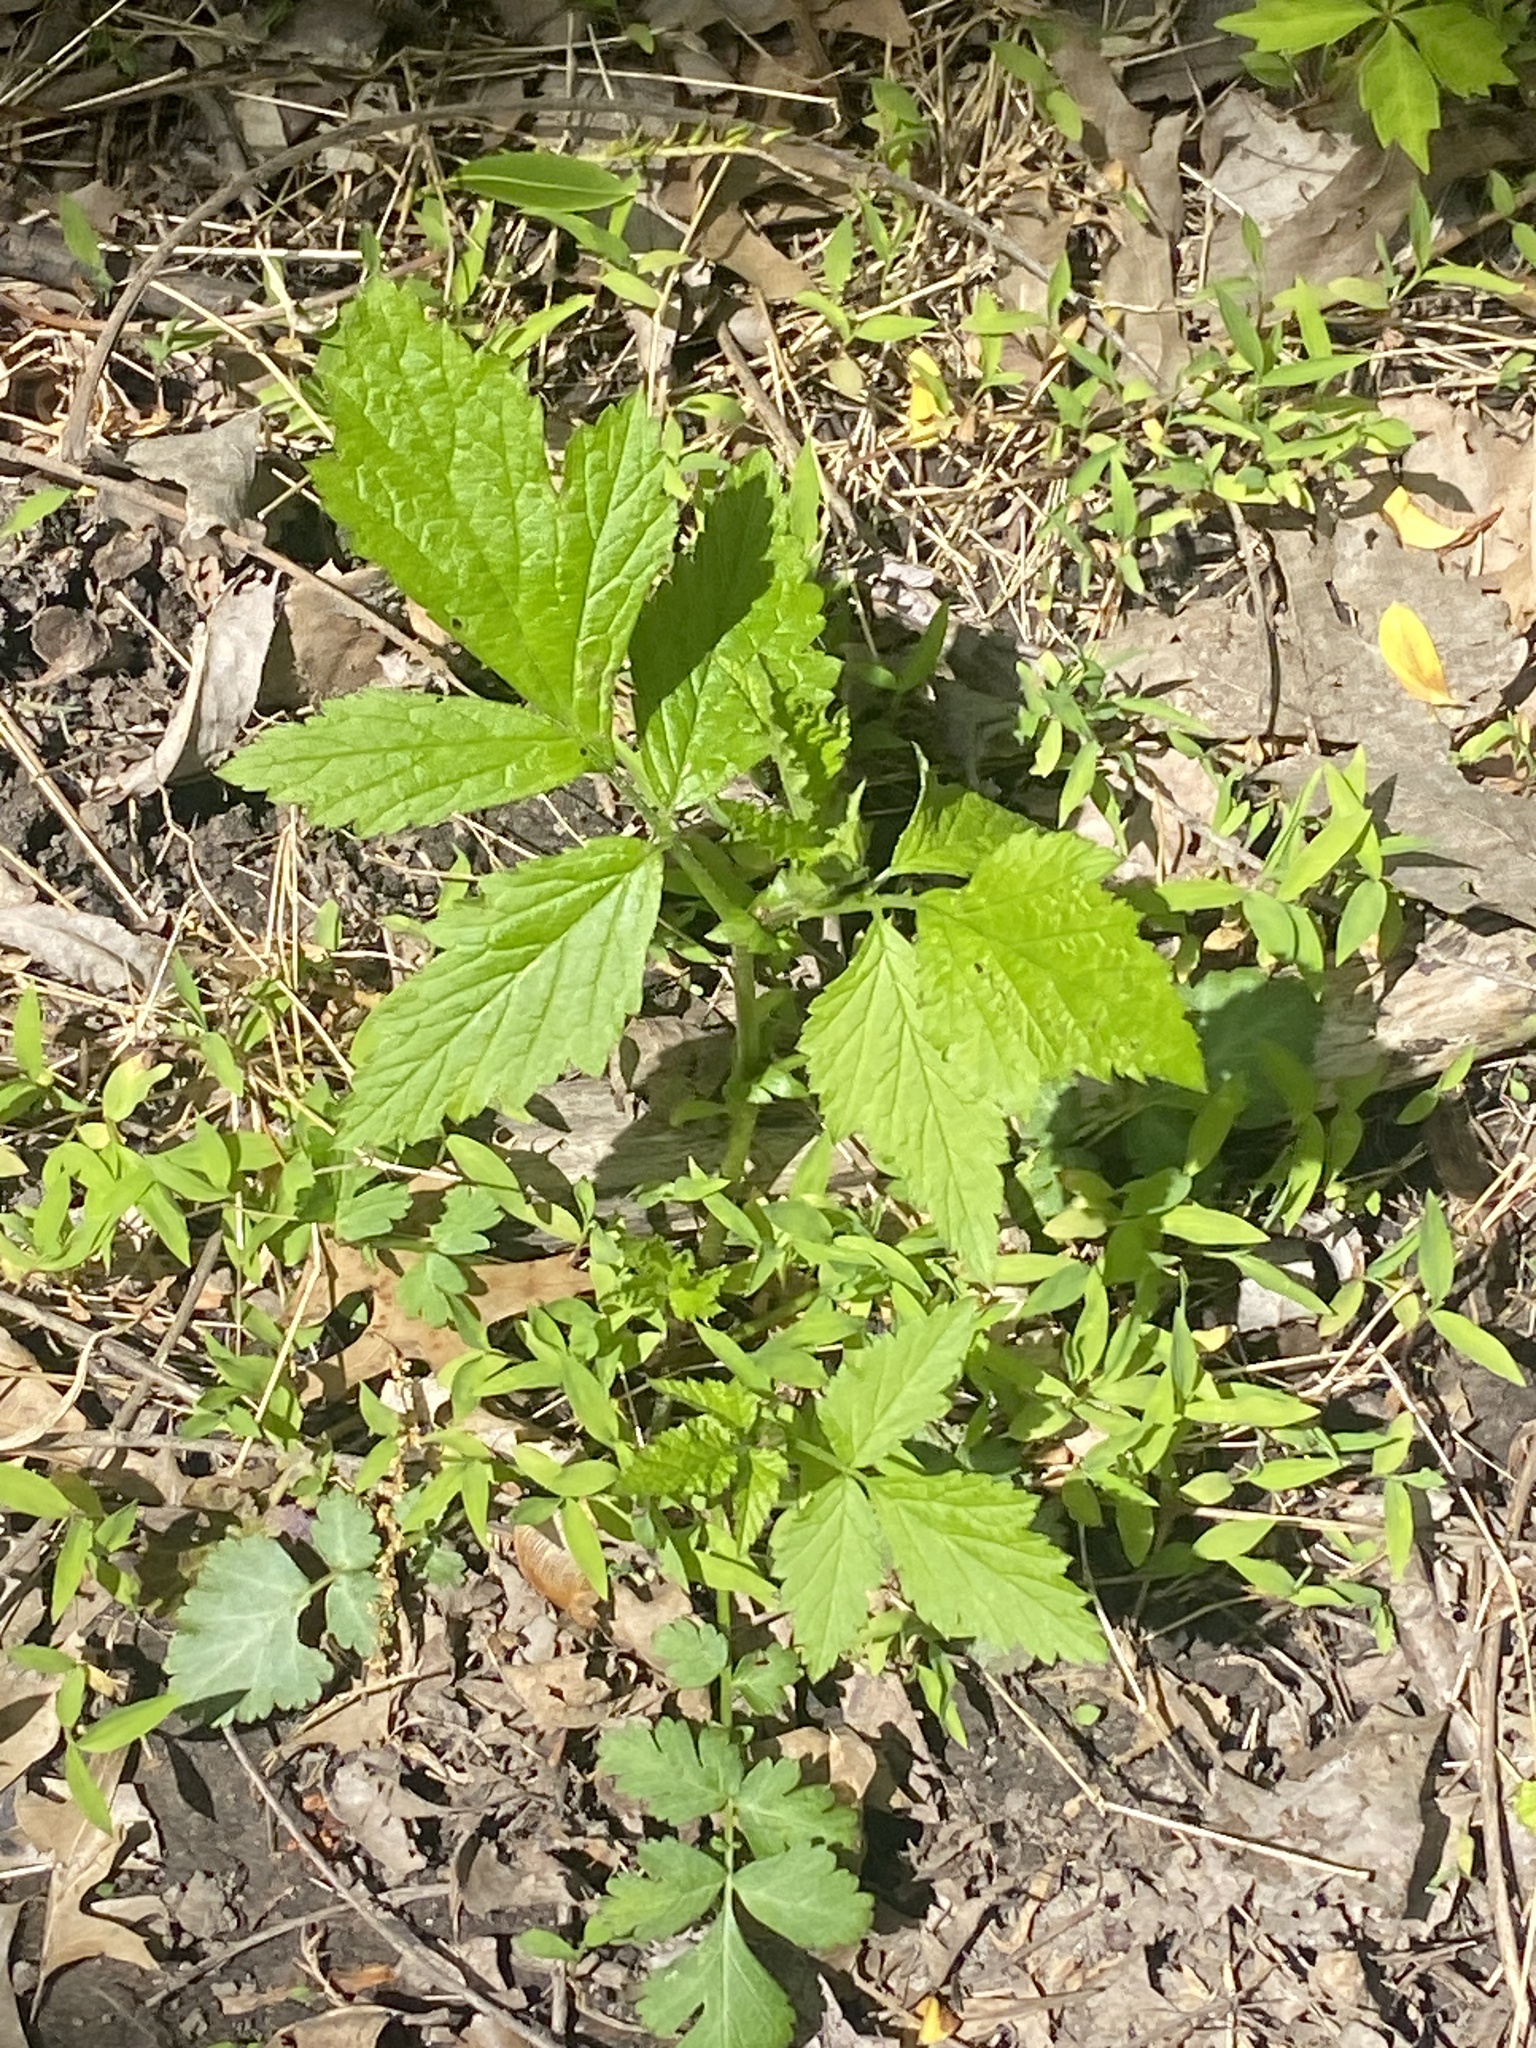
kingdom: Plantae
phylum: Tracheophyta
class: Magnoliopsida
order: Rosales
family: Rosaceae
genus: Geum
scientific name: Geum canadense
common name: White avens
